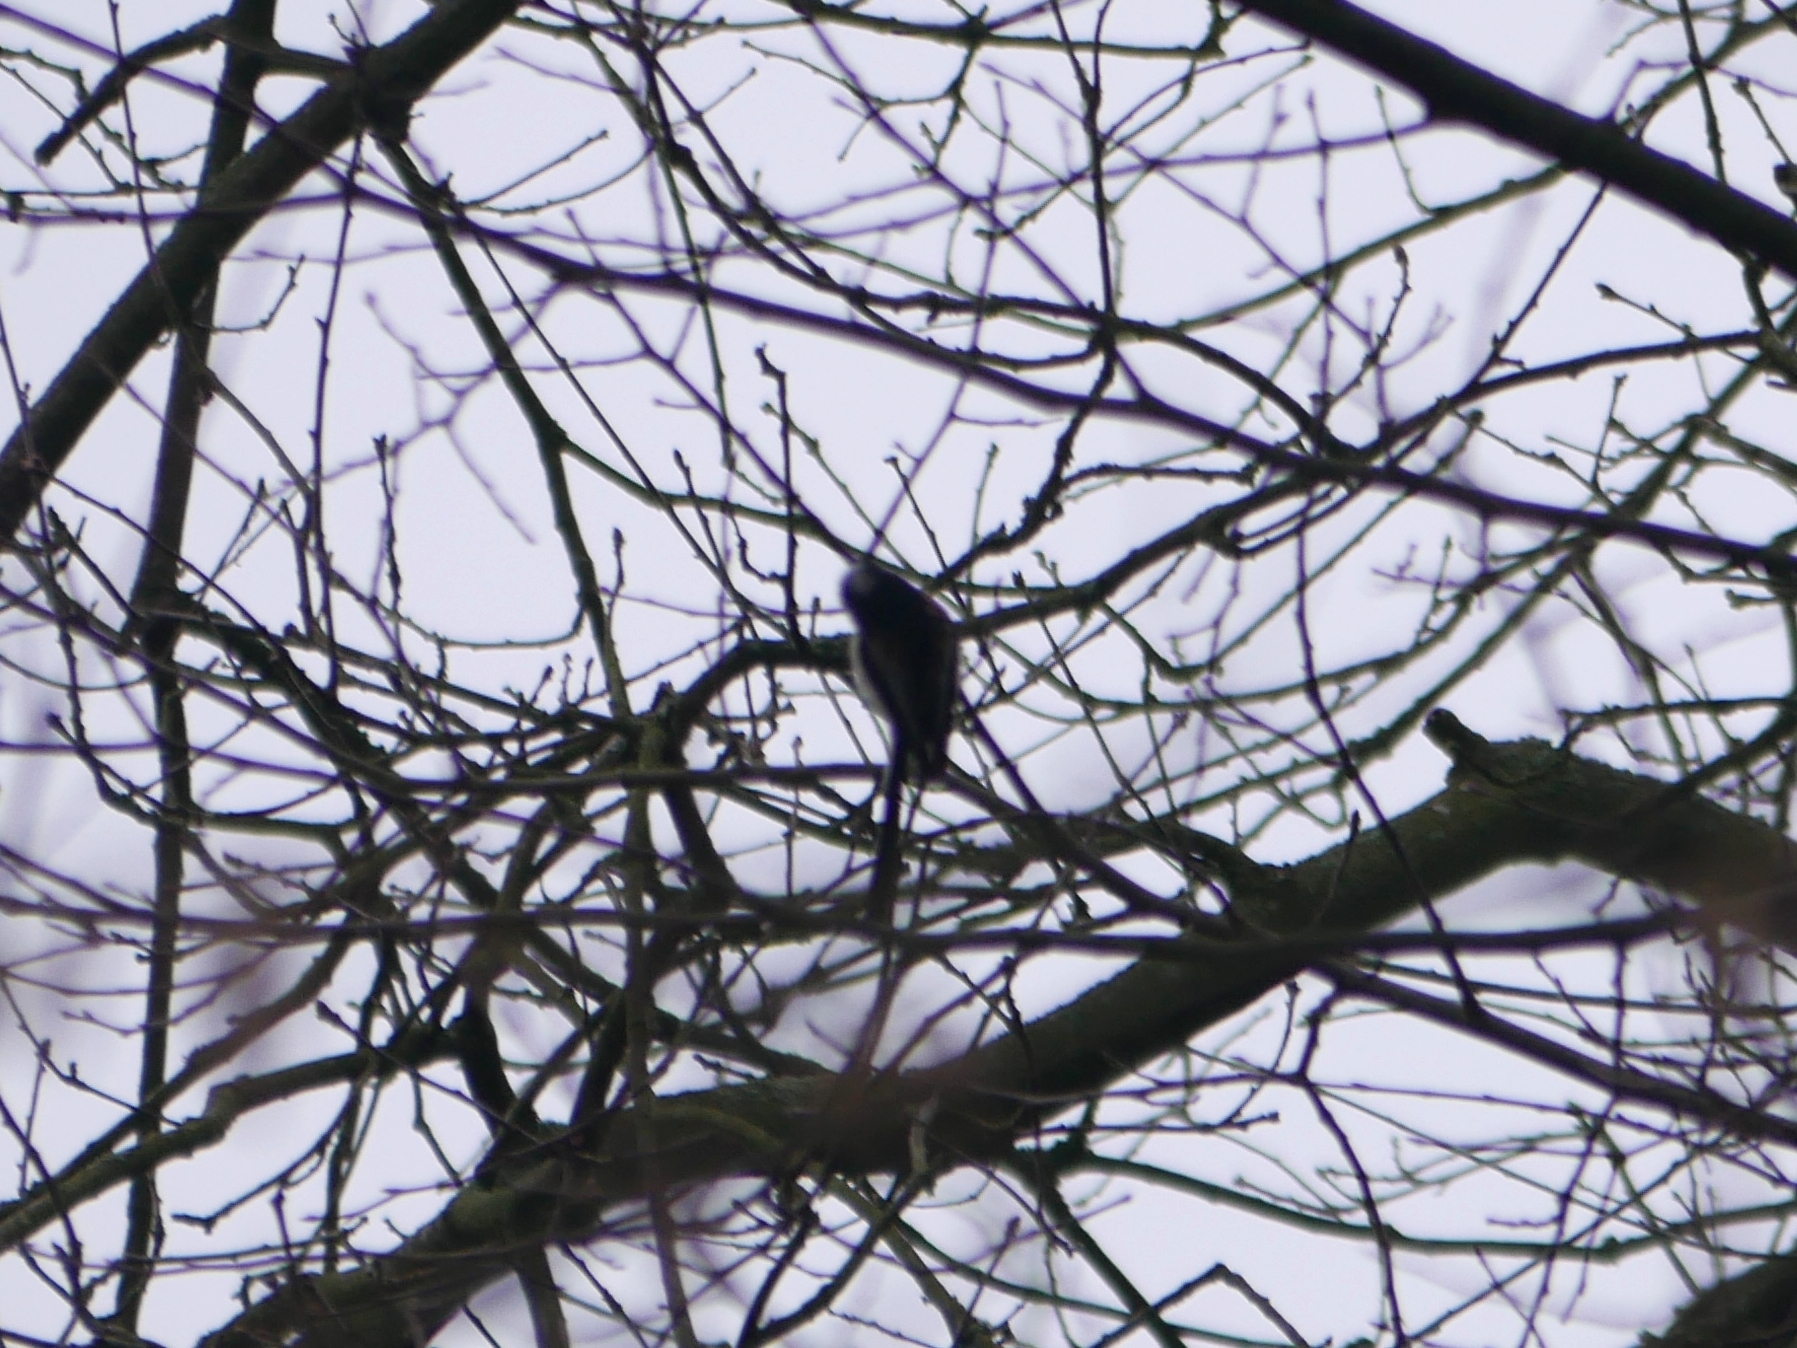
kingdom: Animalia
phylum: Chordata
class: Aves
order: Passeriformes
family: Aegithalidae
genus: Aegithalos
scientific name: Aegithalos caudatus
